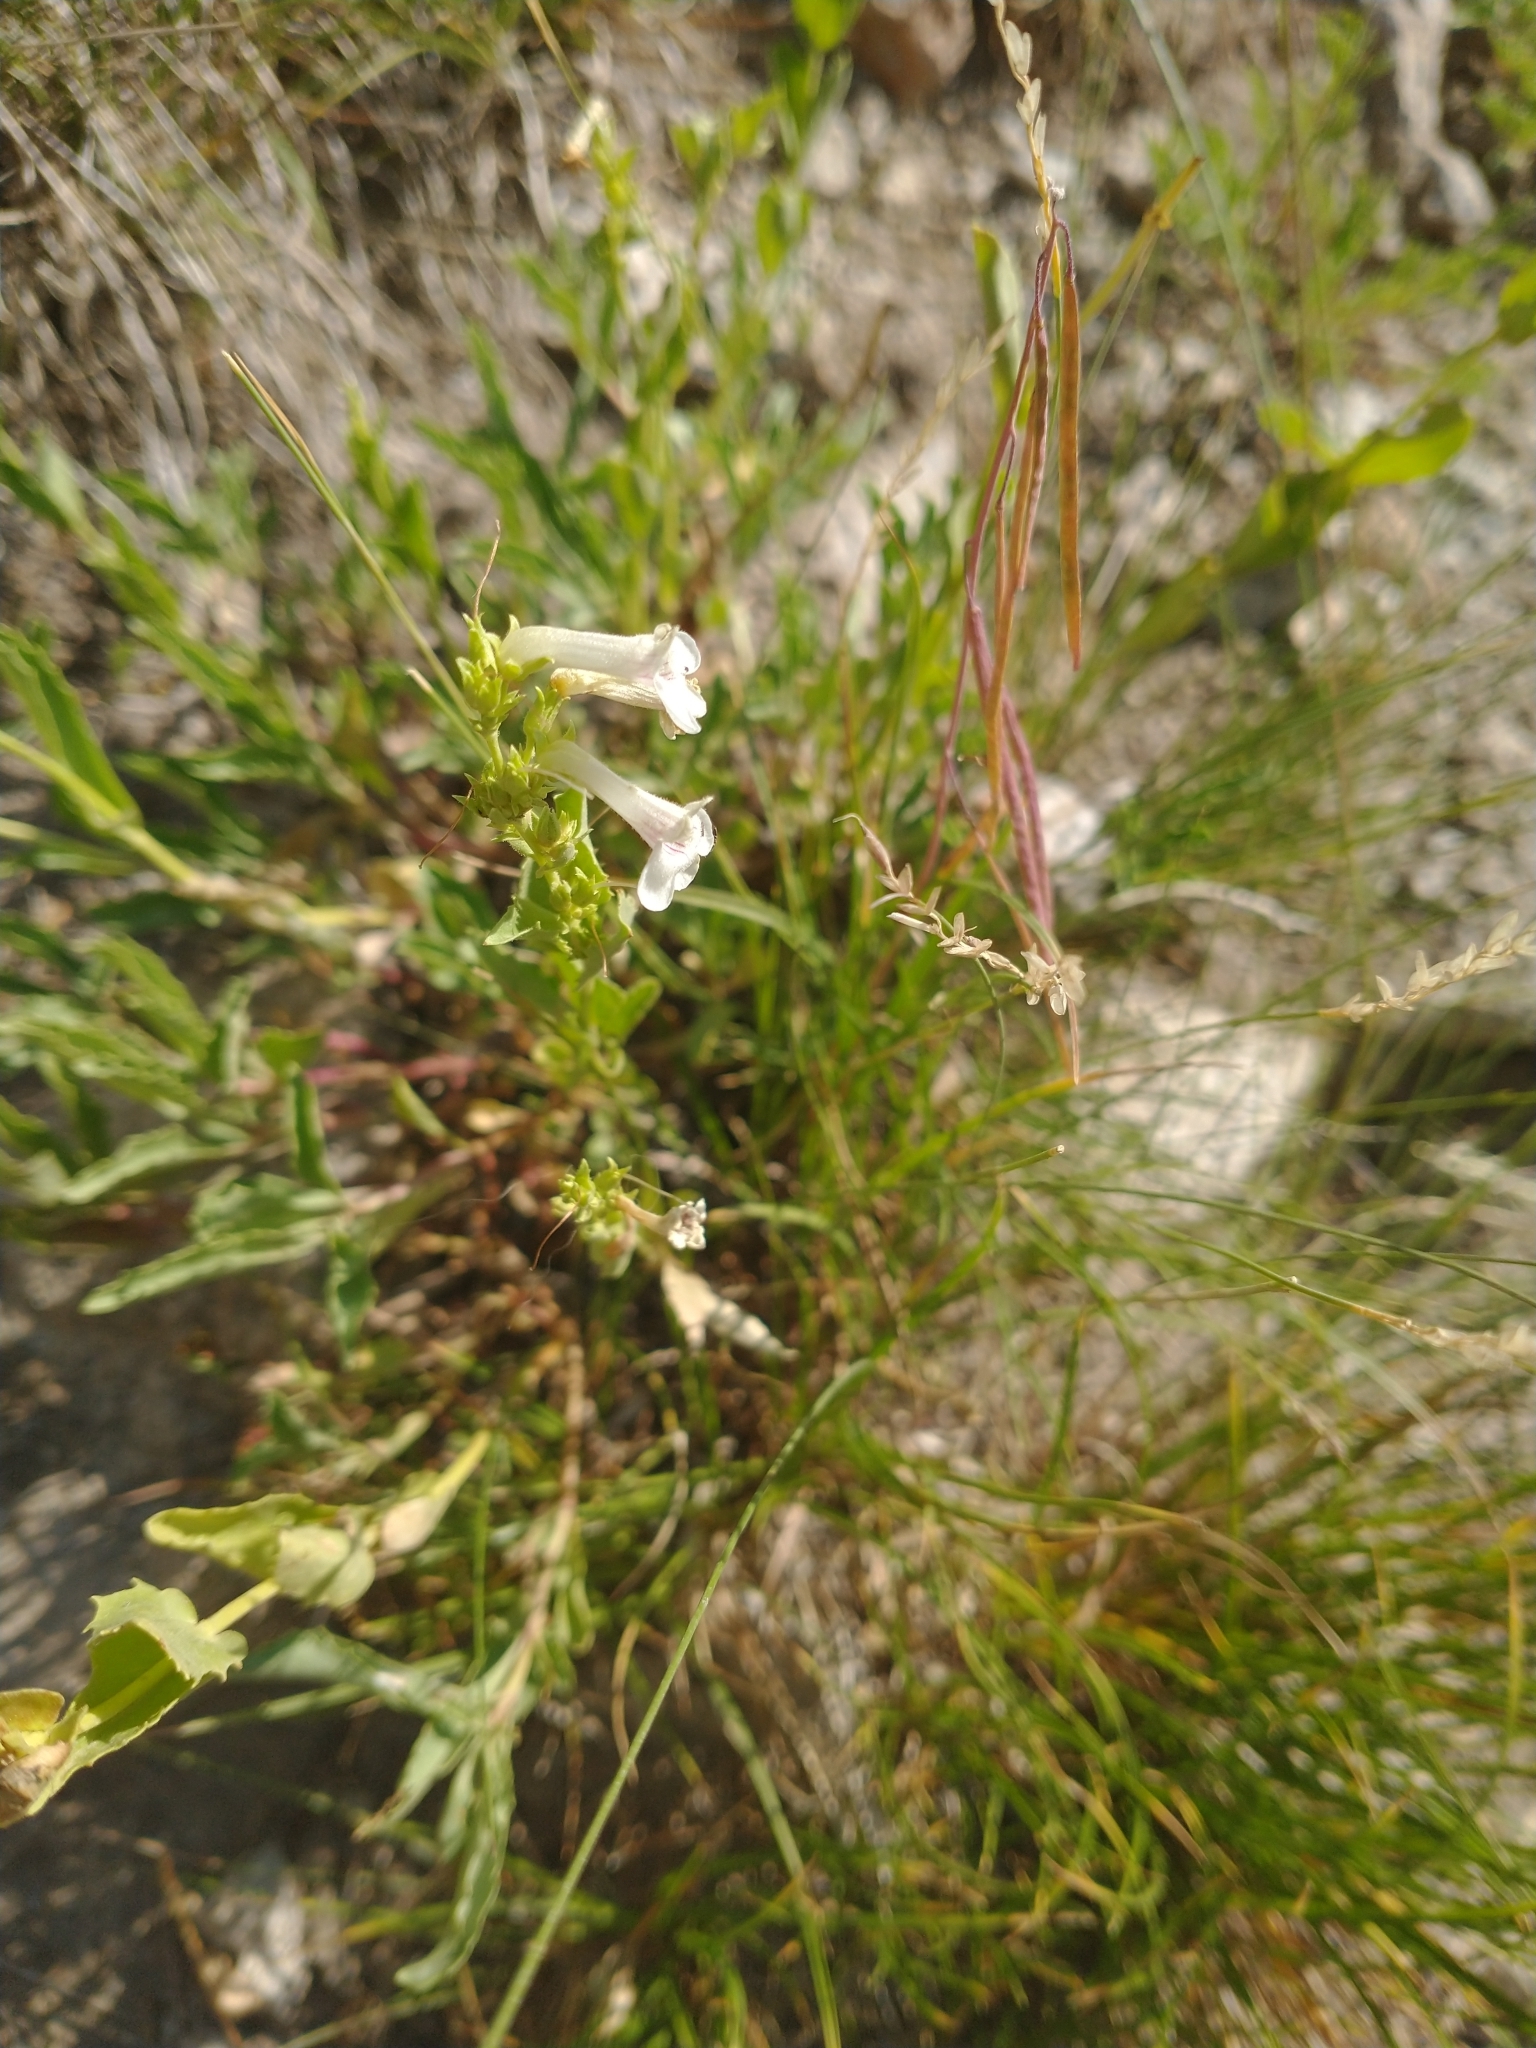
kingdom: Plantae
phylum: Tracheophyta
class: Magnoliopsida
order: Lamiales
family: Plantaginaceae
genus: Penstemon
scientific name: Penstemon deustus
